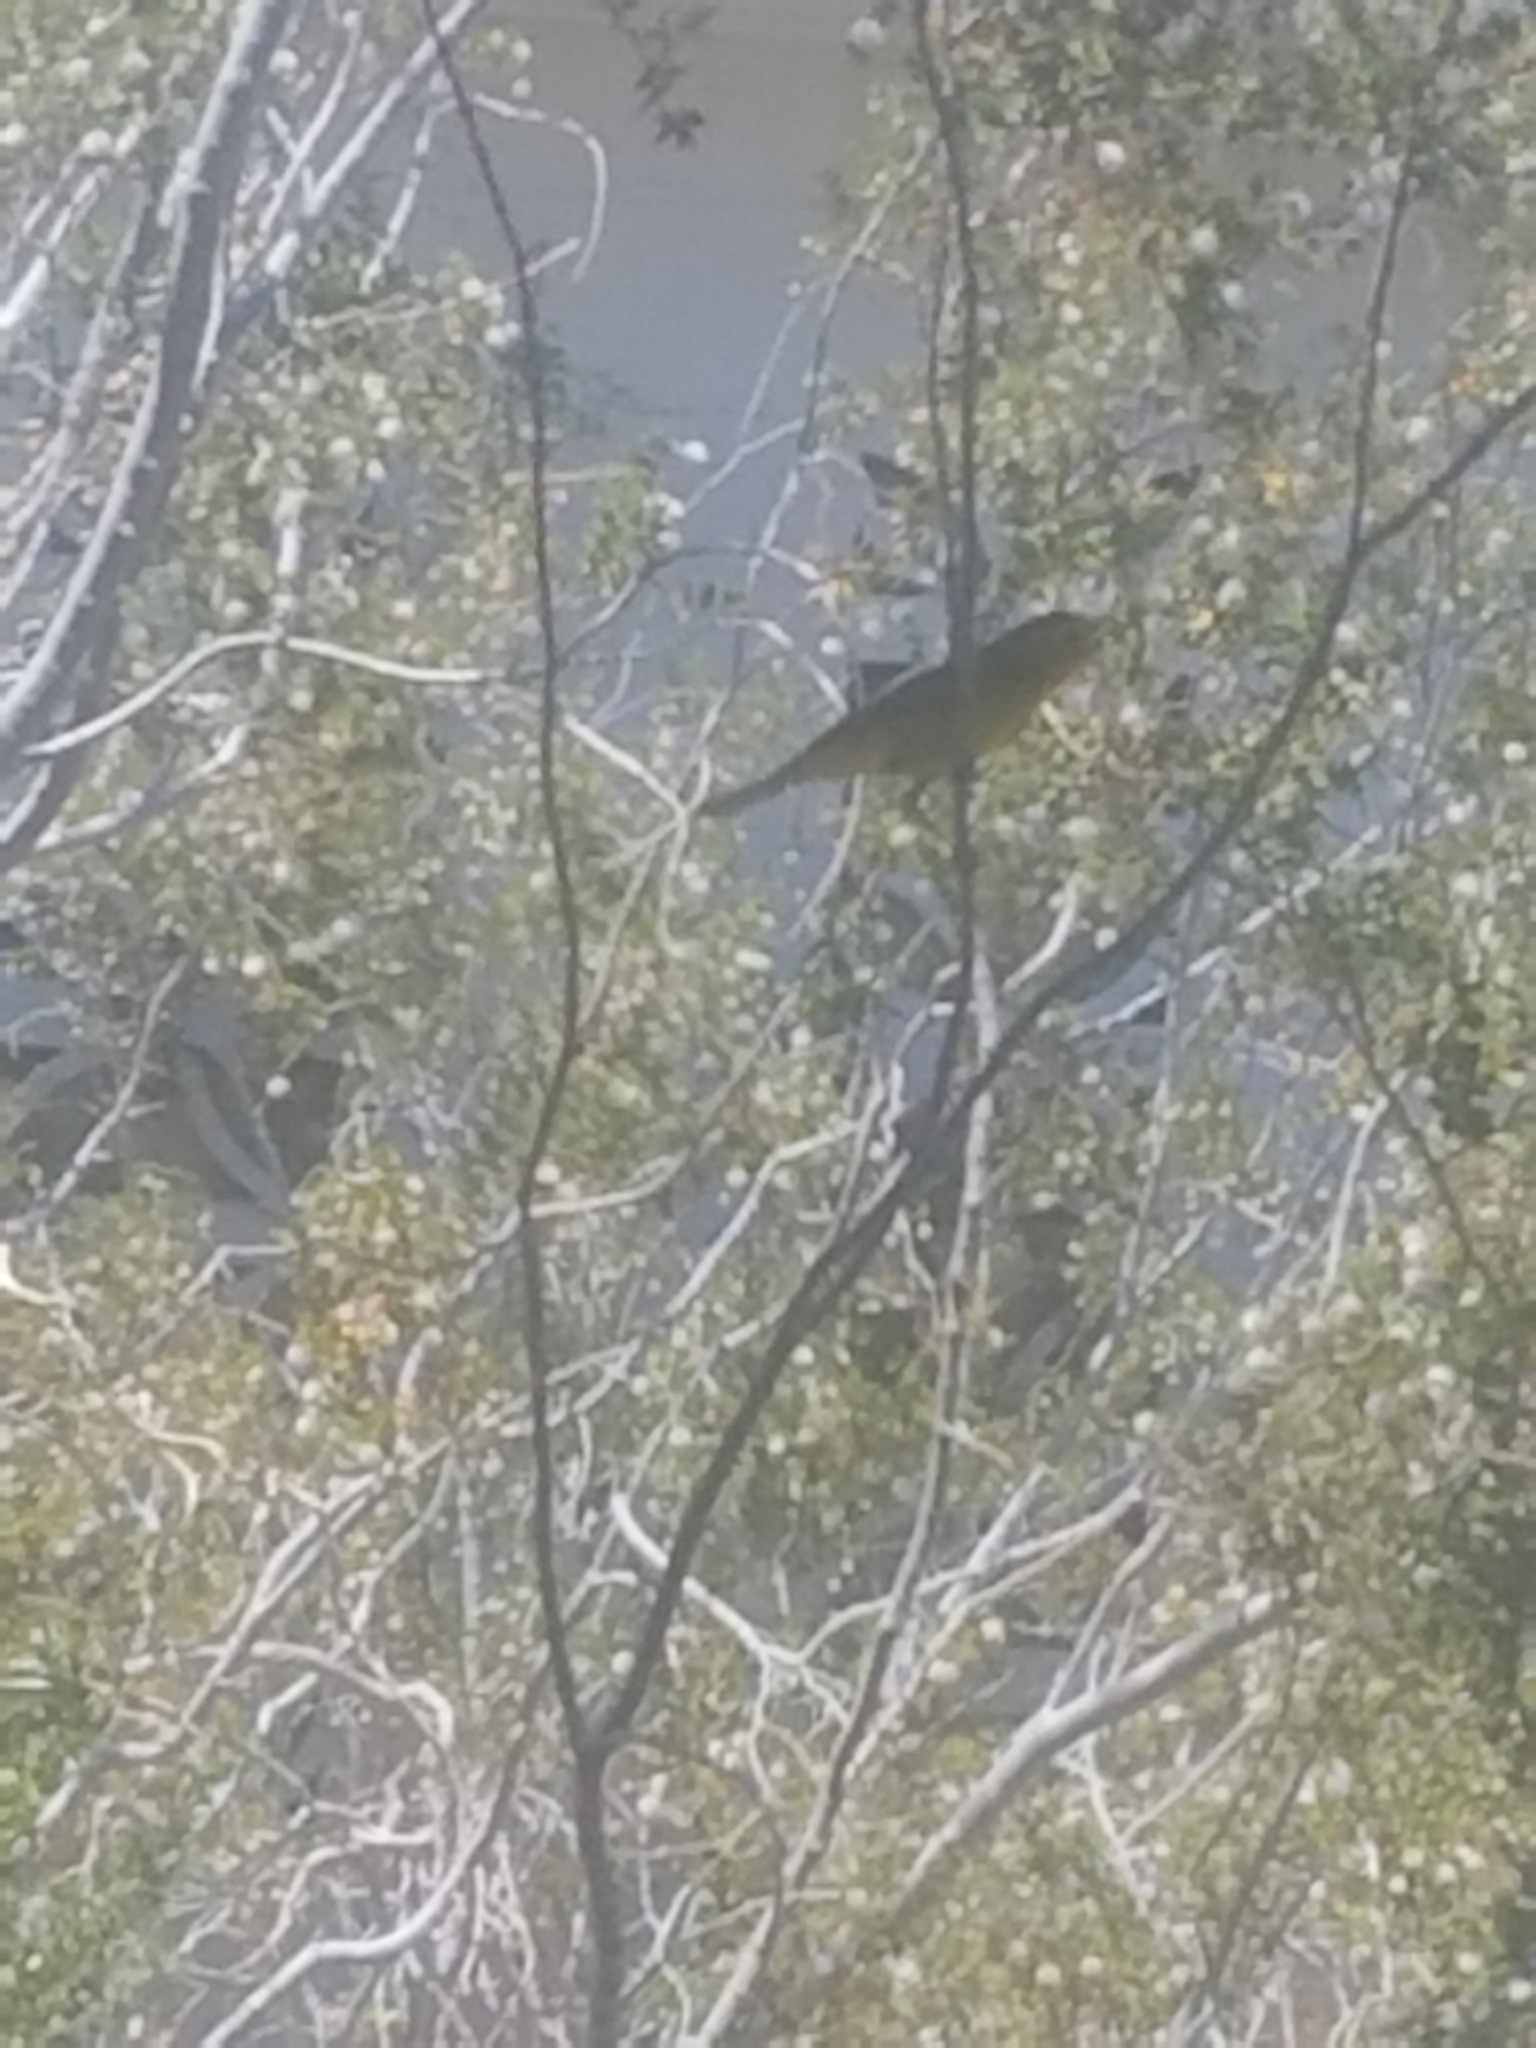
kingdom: Animalia
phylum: Chordata
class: Aves
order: Passeriformes
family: Parulidae
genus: Cardellina
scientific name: Cardellina pusilla
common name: Wilson's warbler
